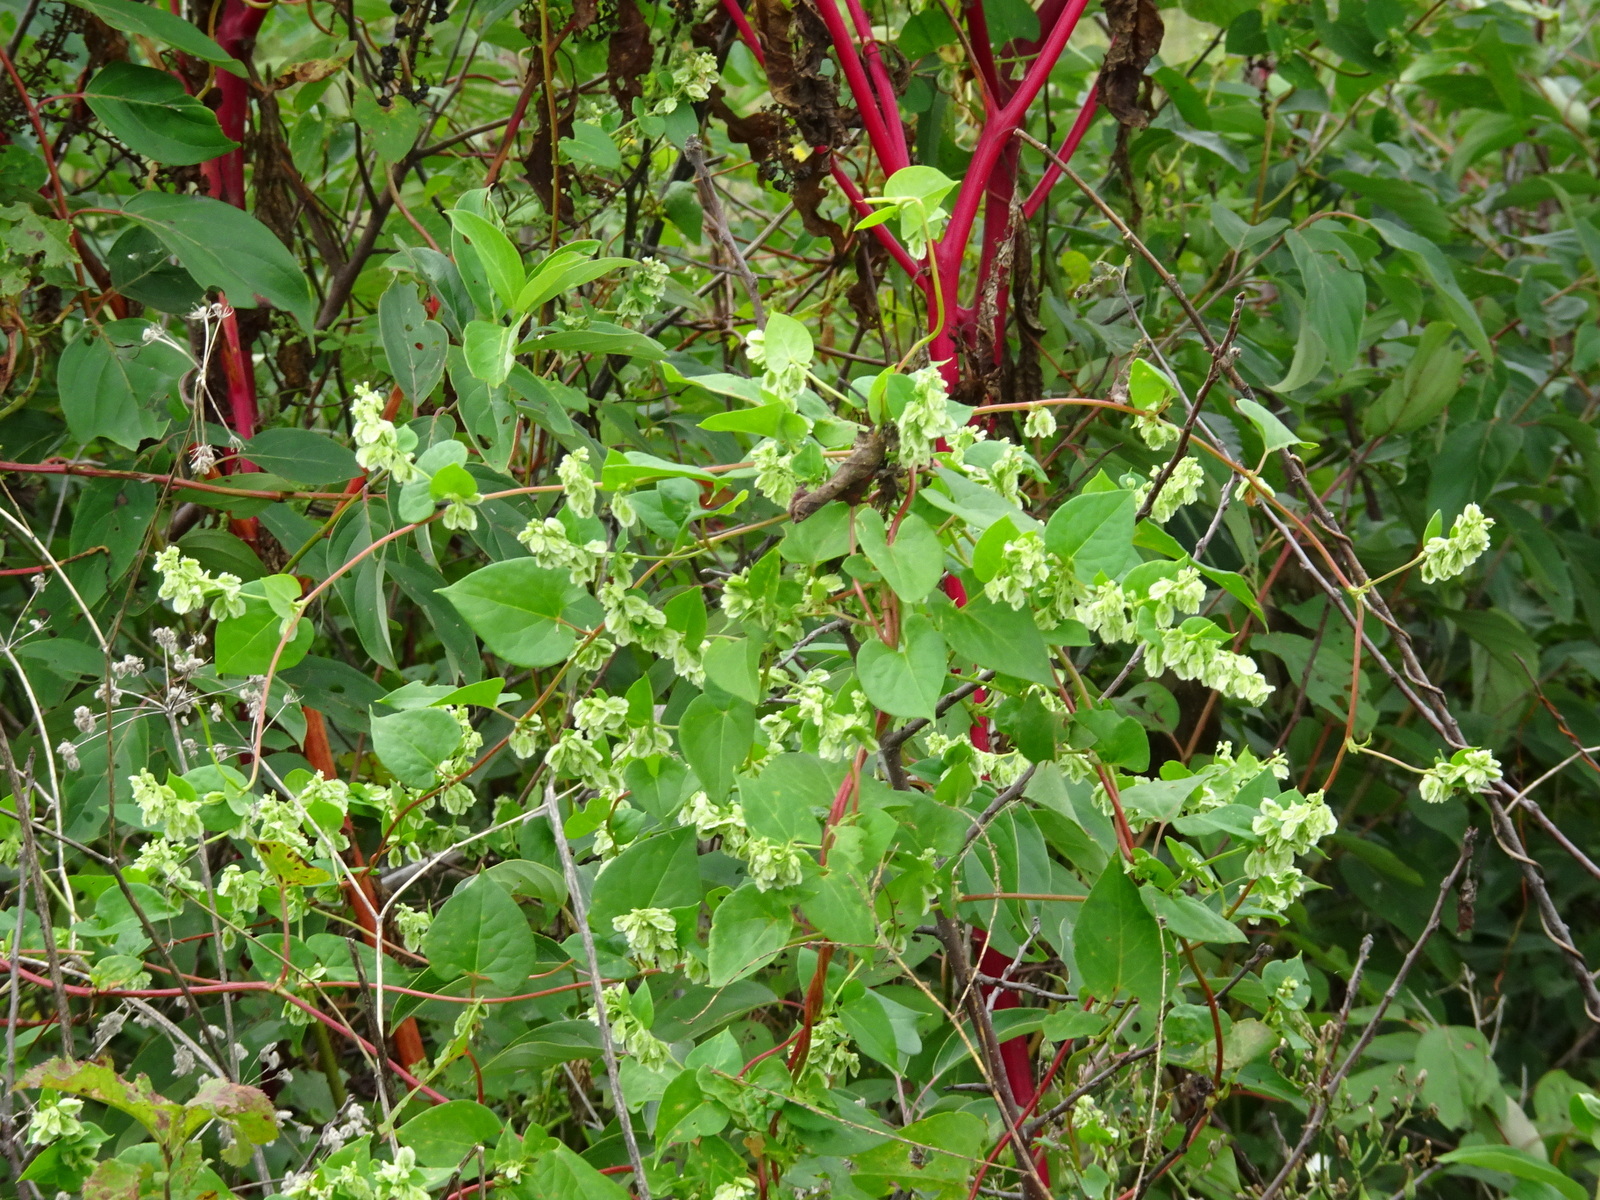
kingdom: Plantae
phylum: Tracheophyta
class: Magnoliopsida
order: Caryophyllales
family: Polygonaceae
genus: Fallopia
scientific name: Fallopia scandens
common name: Climbing false buckwheat
